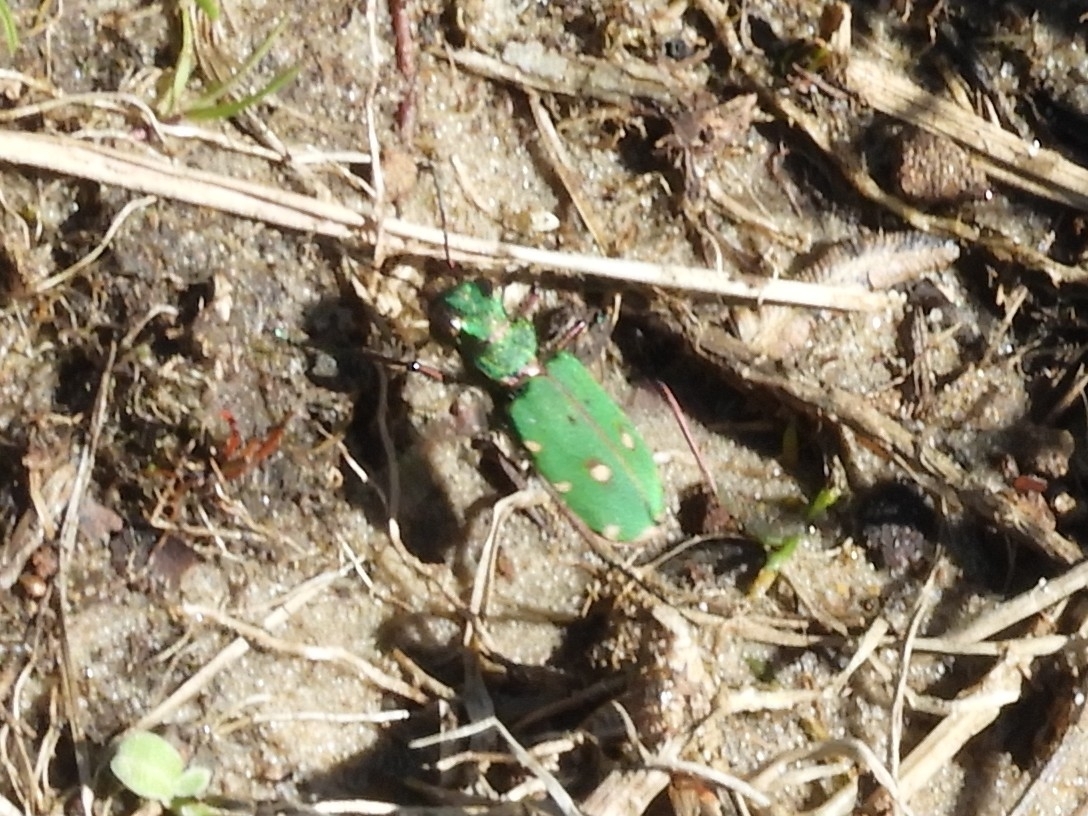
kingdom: Animalia
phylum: Arthropoda
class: Insecta
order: Coleoptera
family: Carabidae
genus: Cicindela
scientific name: Cicindela campestris
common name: Common tiger beetle
